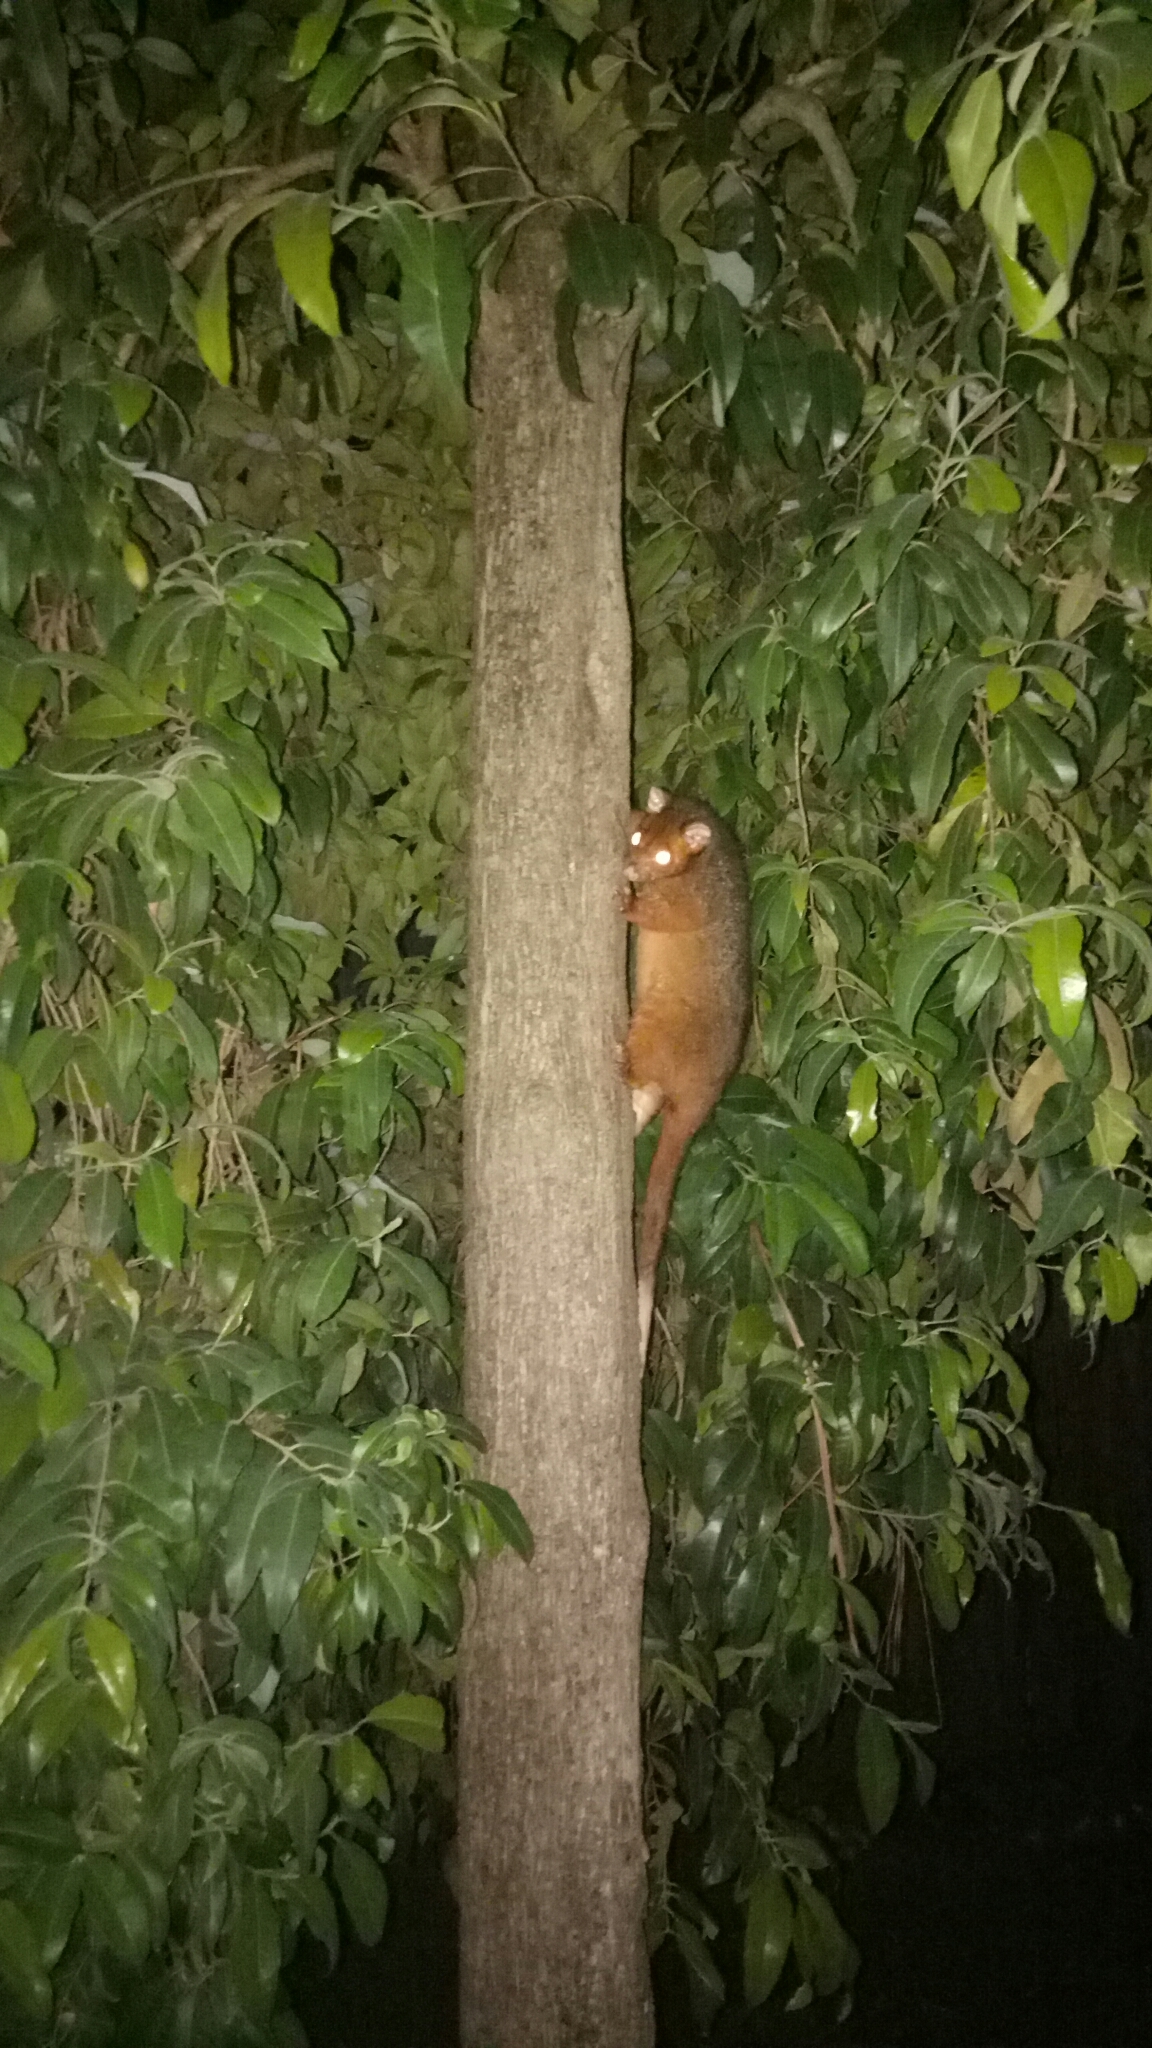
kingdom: Animalia
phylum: Chordata
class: Mammalia
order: Diprotodontia
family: Pseudocheiridae
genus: Pseudocheirus
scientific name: Pseudocheirus peregrinus
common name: Common ringtail possum
